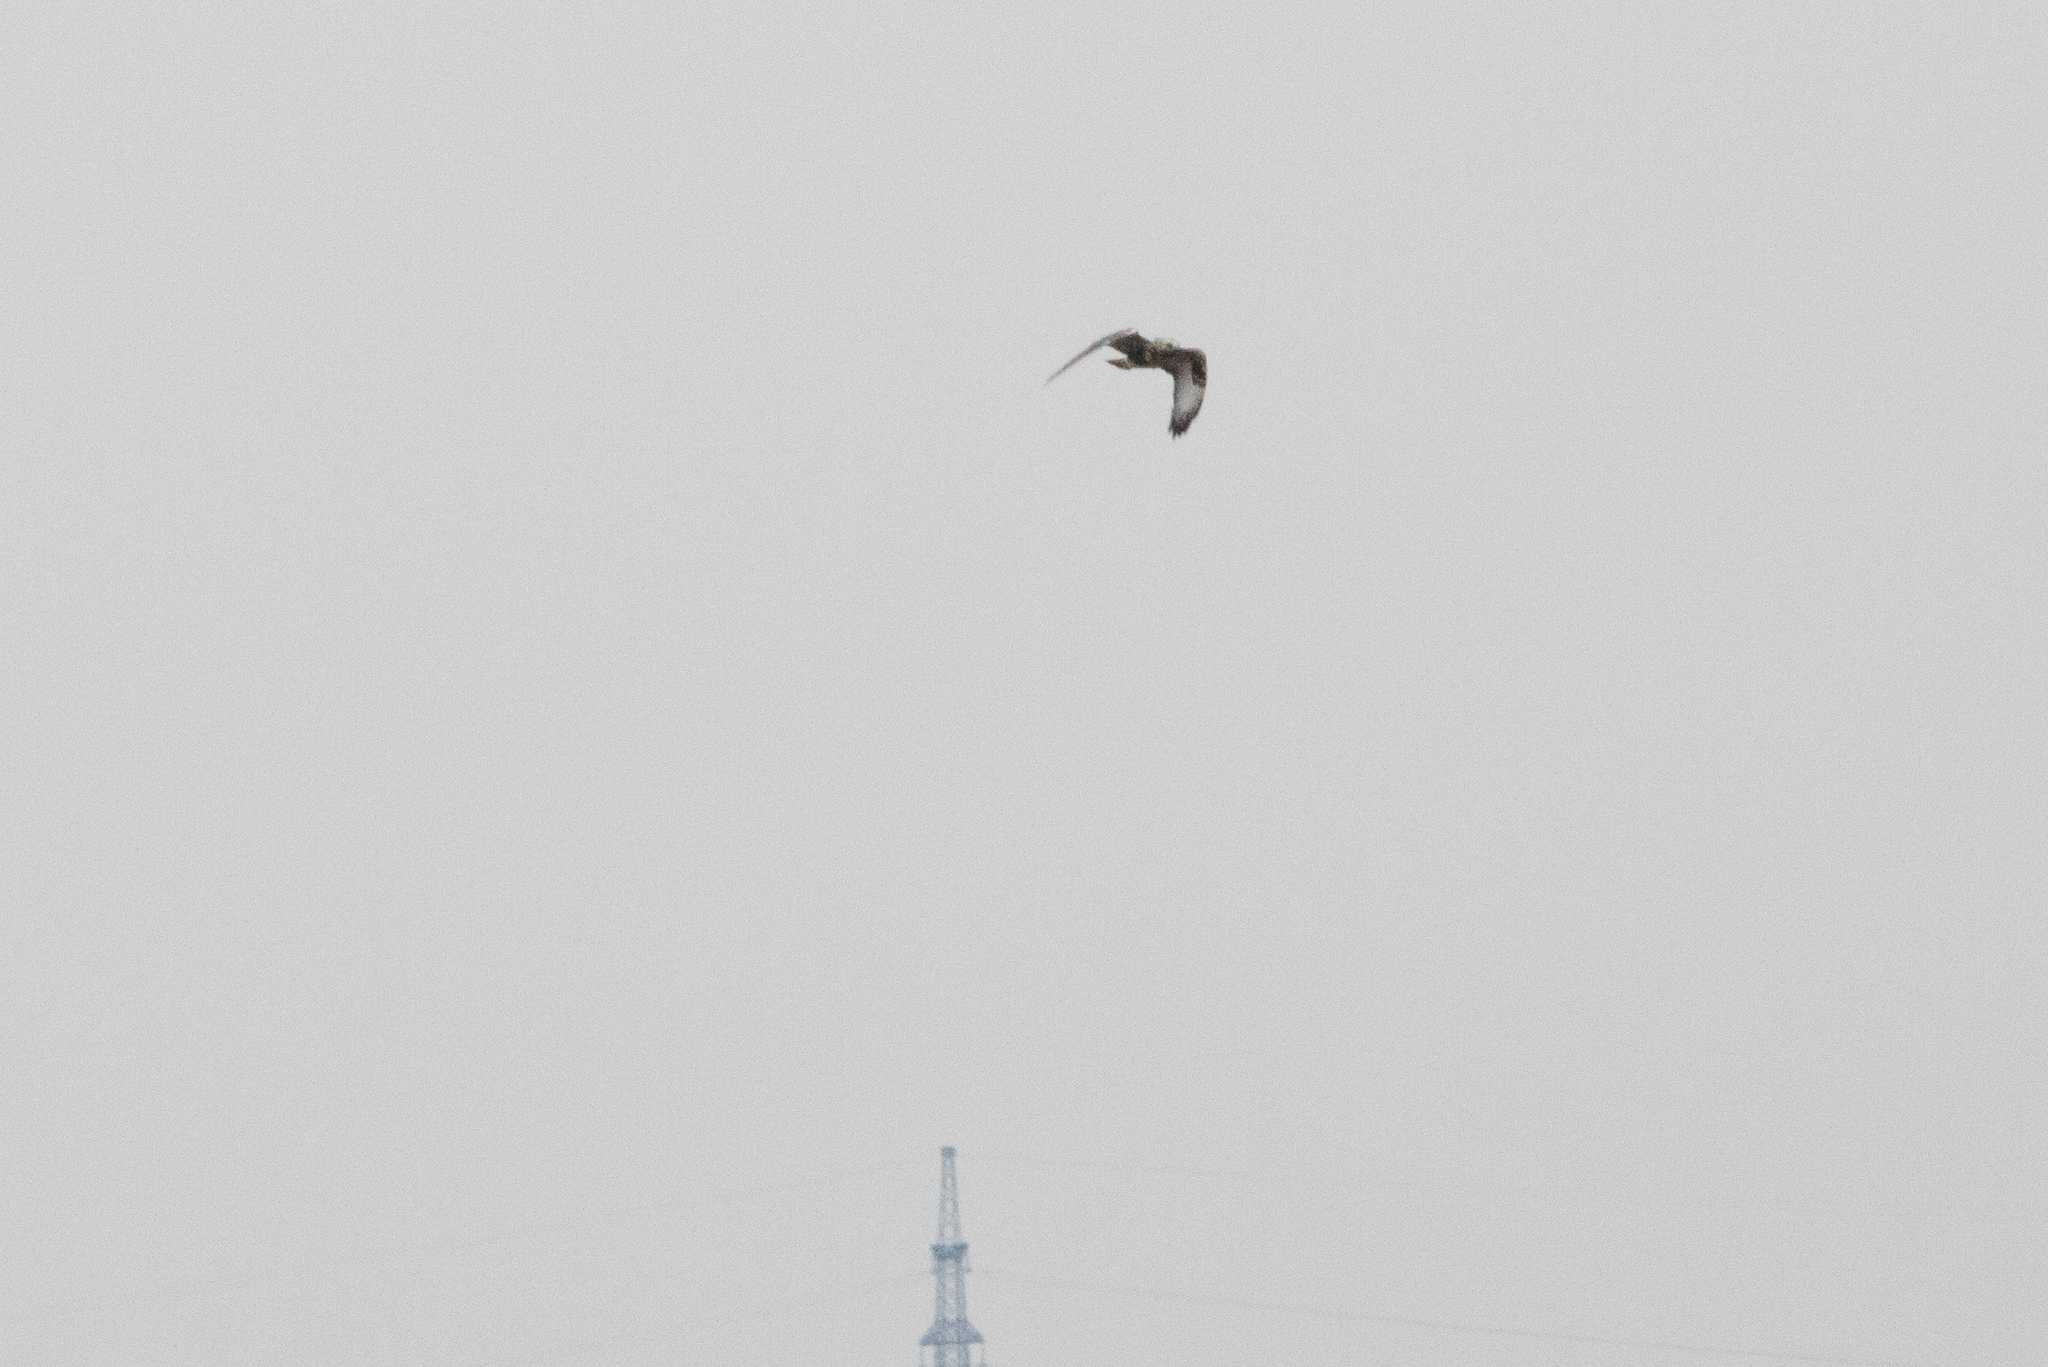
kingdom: Animalia
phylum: Chordata
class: Aves
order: Accipitriformes
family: Accipitridae
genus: Buteo
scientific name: Buteo lagopus
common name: Rough-legged buzzard
